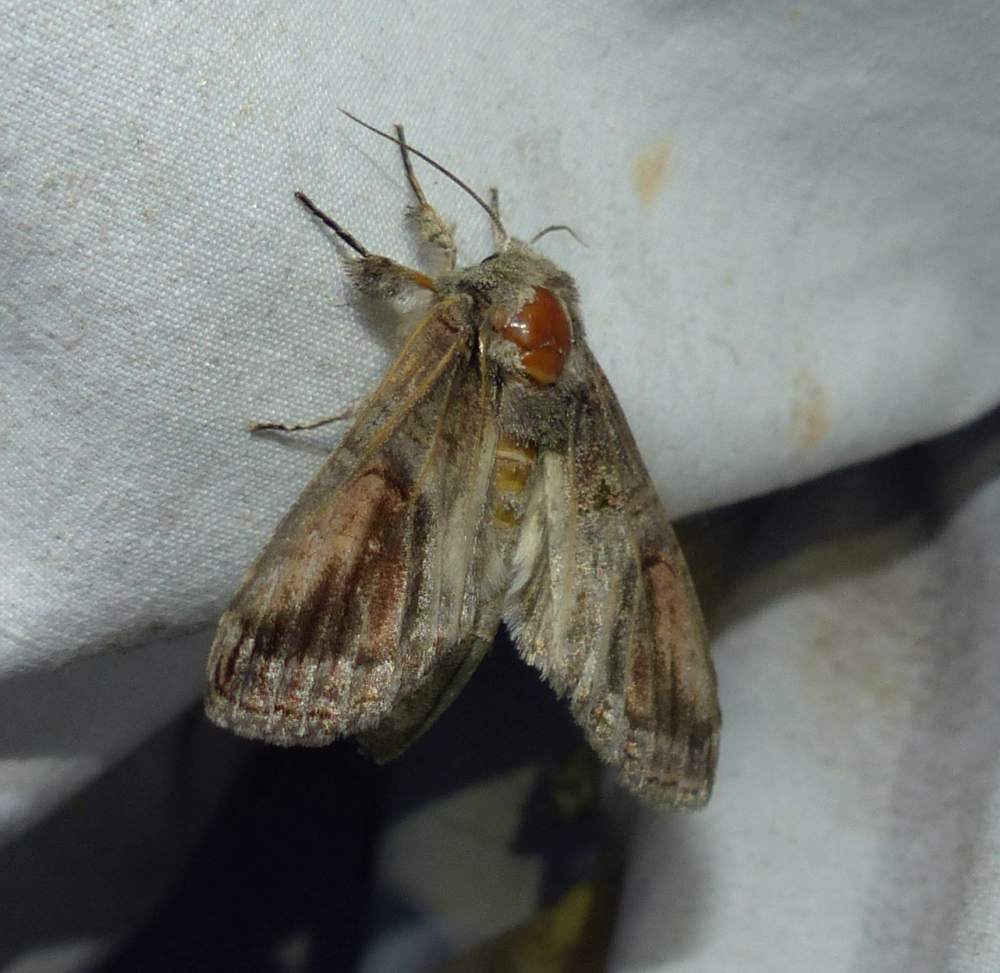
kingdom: Animalia
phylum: Arthropoda
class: Insecta
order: Lepidoptera
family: Notodontidae
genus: Heterocampa
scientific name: Heterocampa obliqua
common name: Oblique heterocampa
